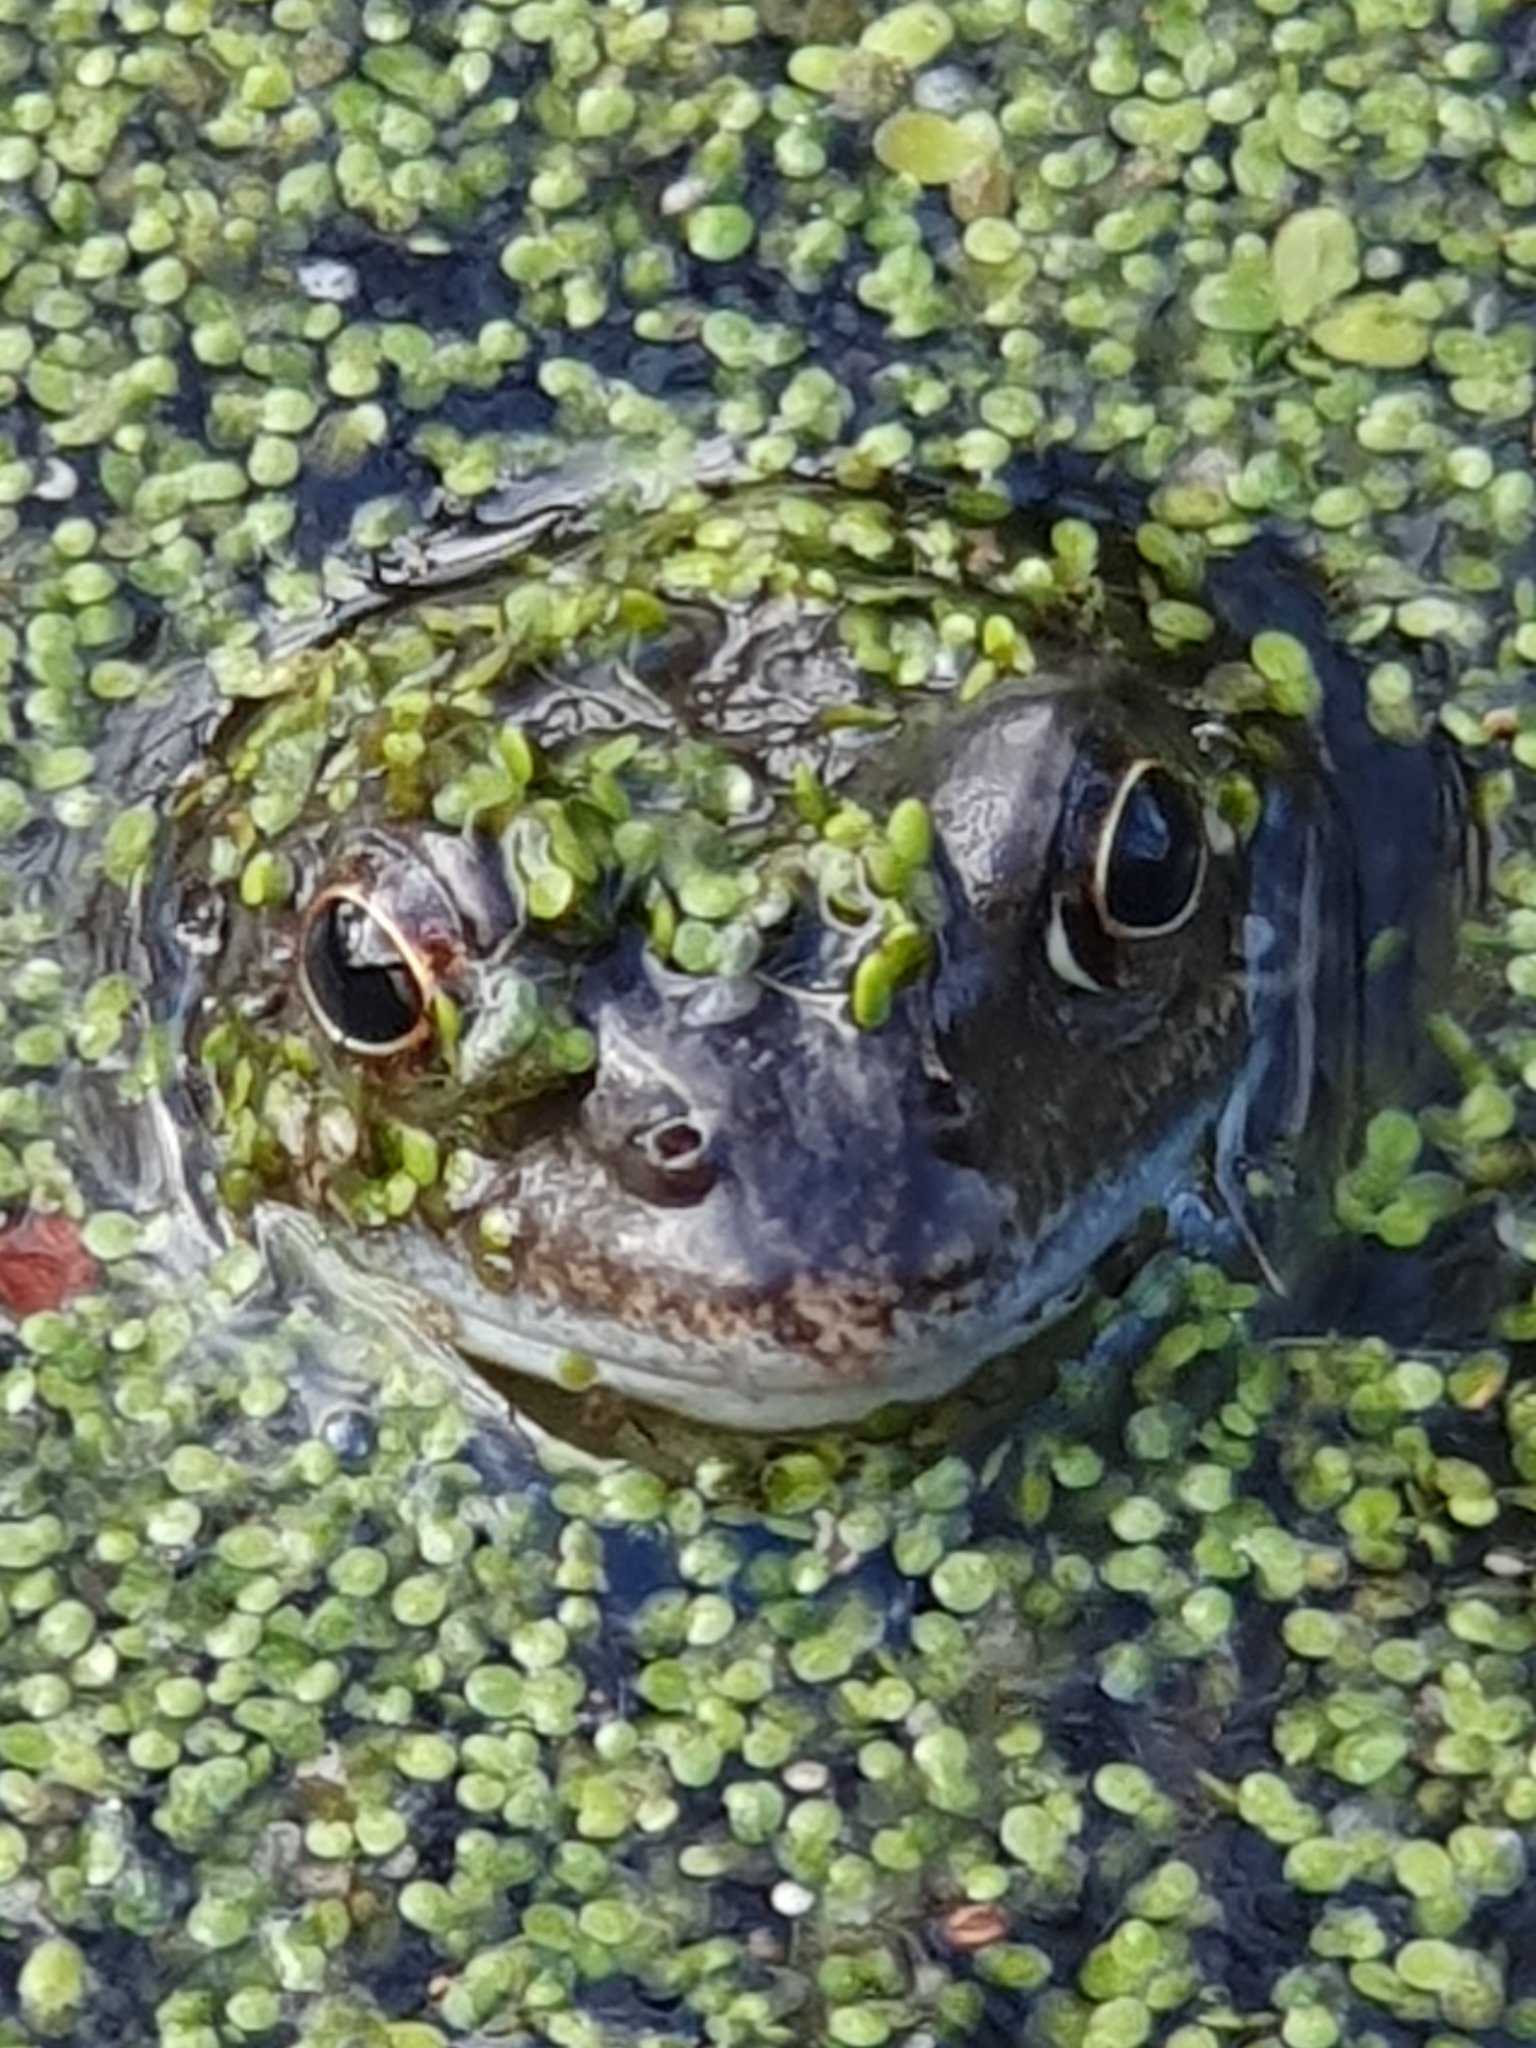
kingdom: Animalia
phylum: Chordata
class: Amphibia
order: Anura
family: Ranidae
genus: Rana
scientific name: Rana temporaria
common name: Common frog
